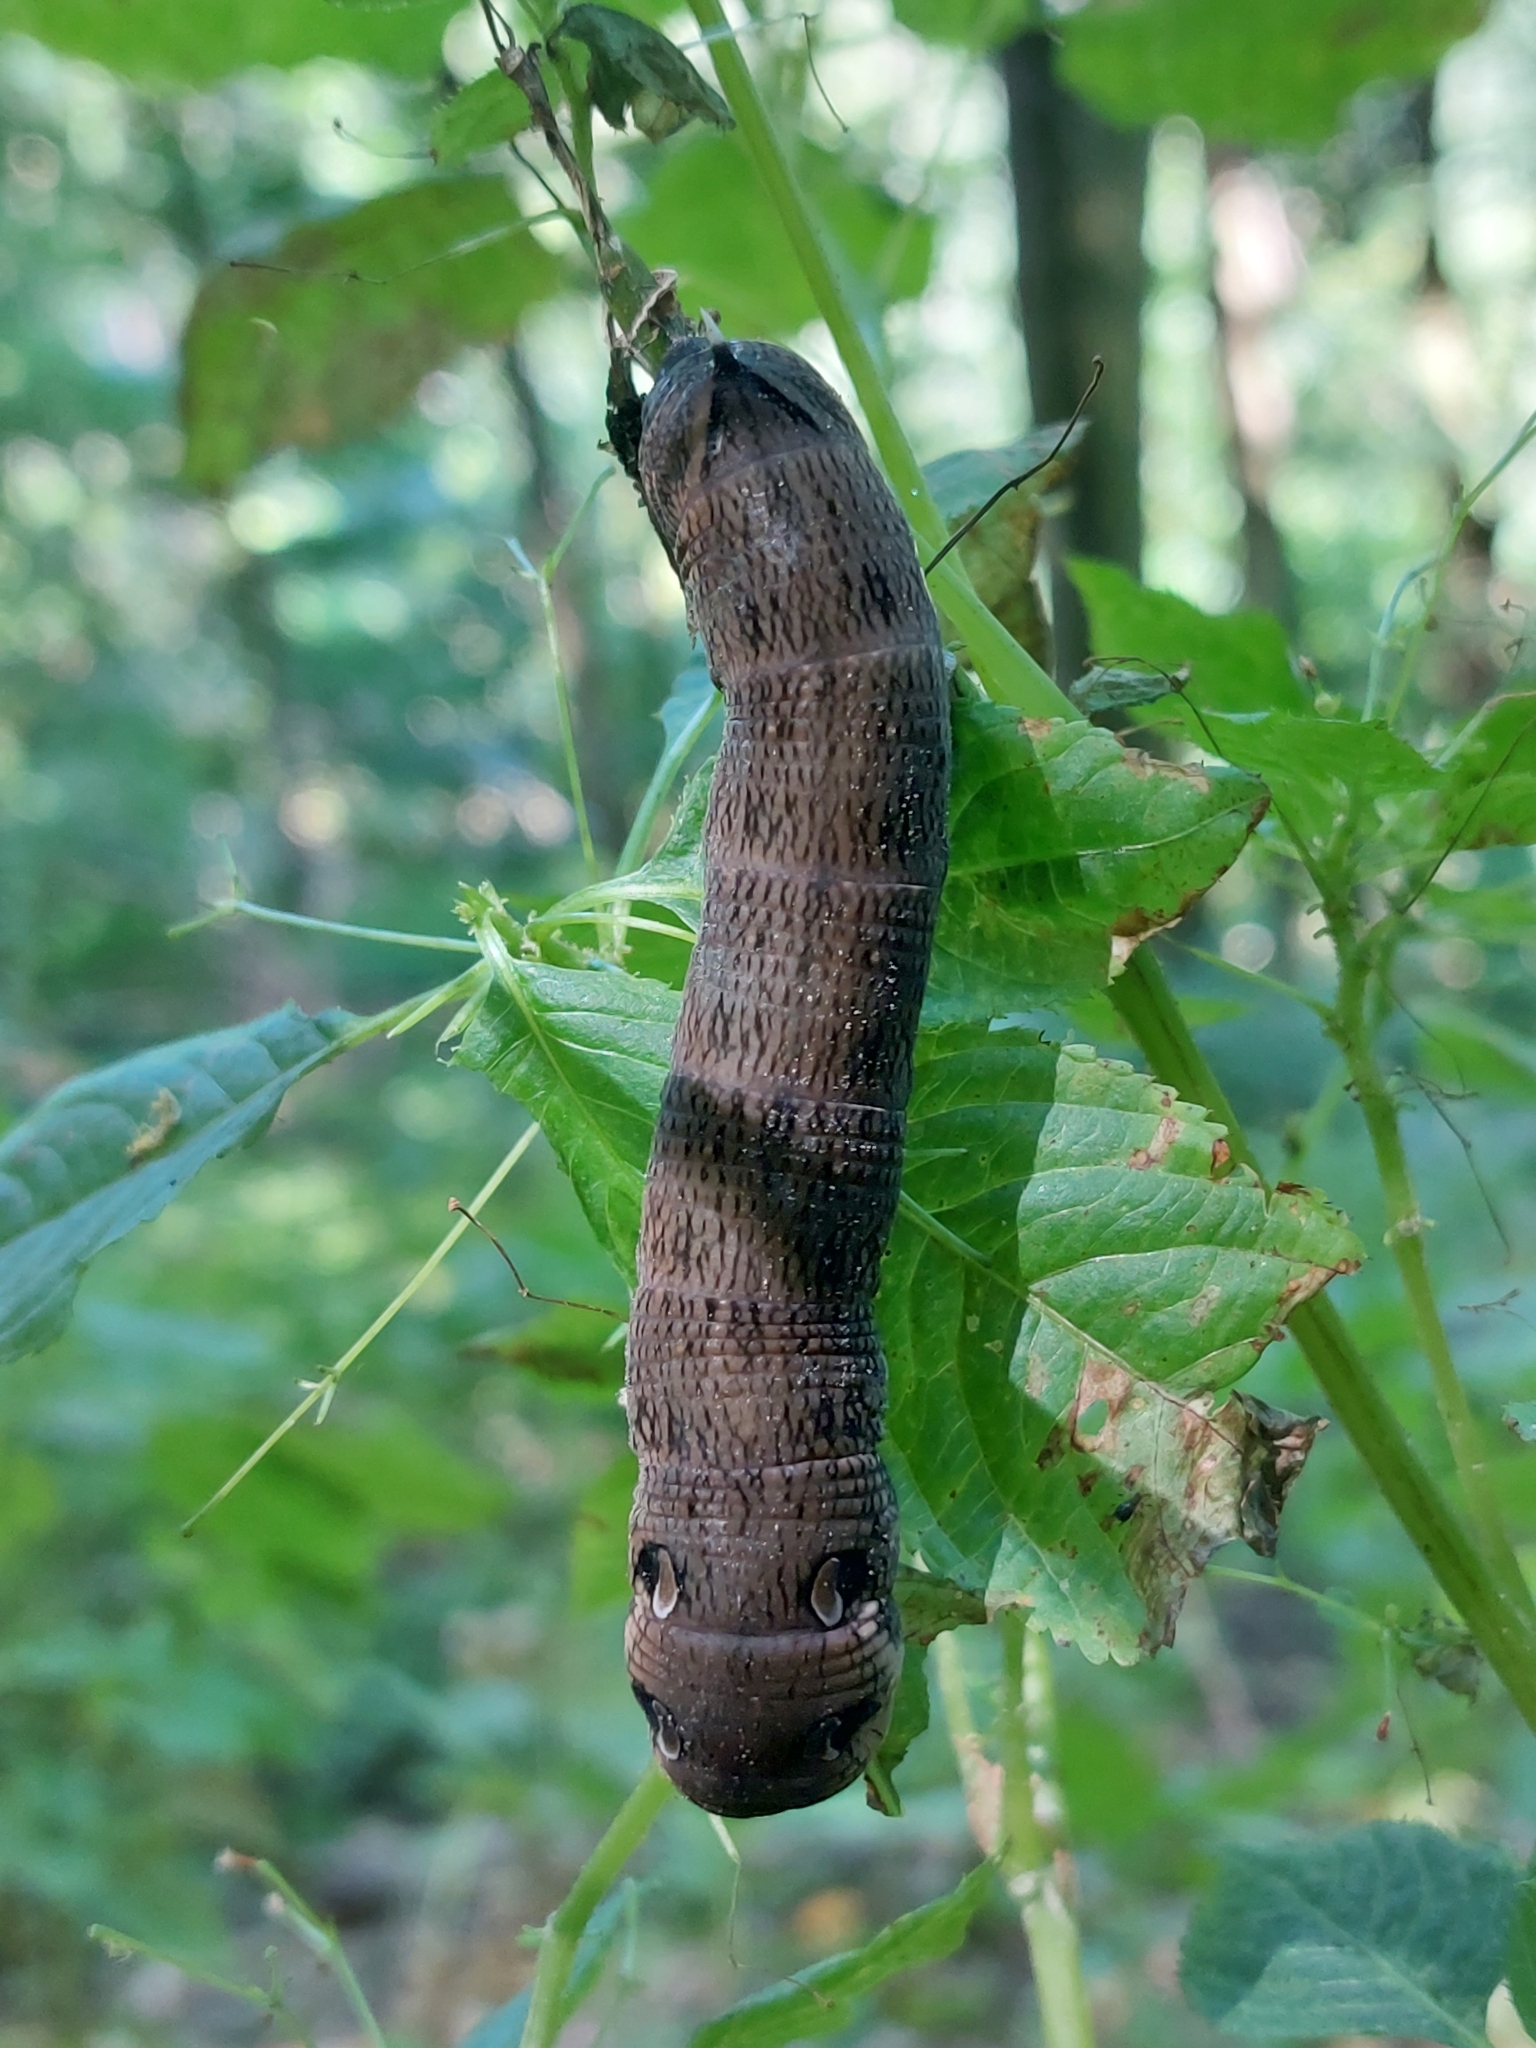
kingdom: Animalia
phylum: Arthropoda
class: Insecta
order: Lepidoptera
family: Sphingidae
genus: Deilephila
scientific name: Deilephila elpenor
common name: Elephant hawk-moth
